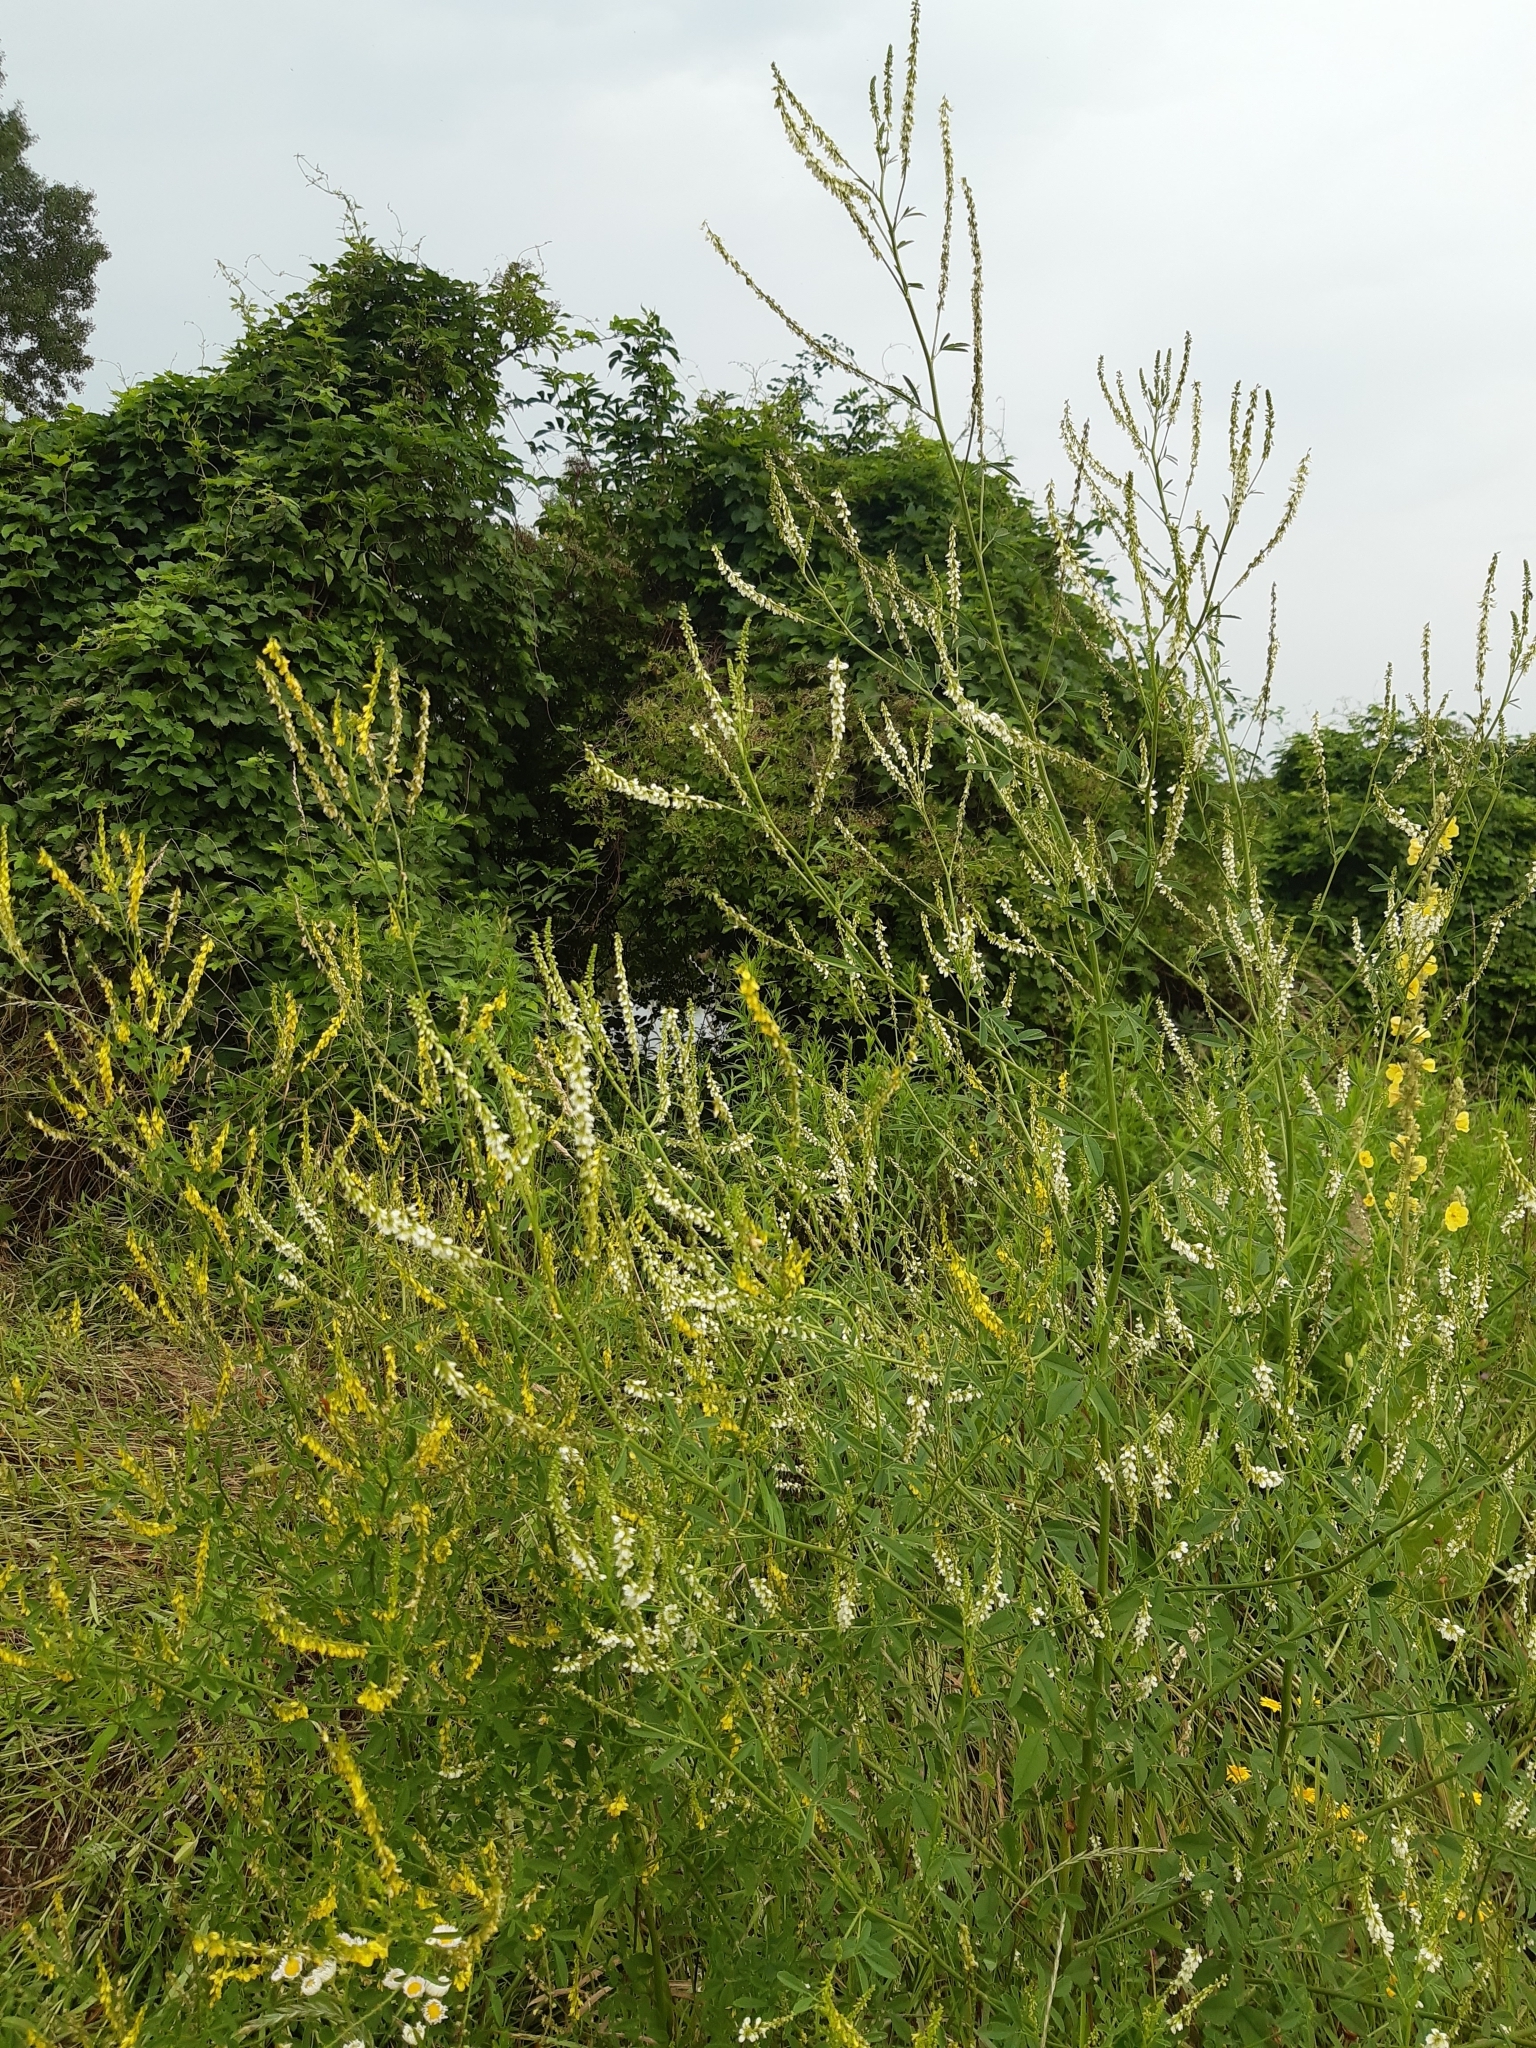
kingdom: Plantae
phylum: Tracheophyta
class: Magnoliopsida
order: Fabales
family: Fabaceae
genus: Melilotus
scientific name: Melilotus albus
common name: White melilot
